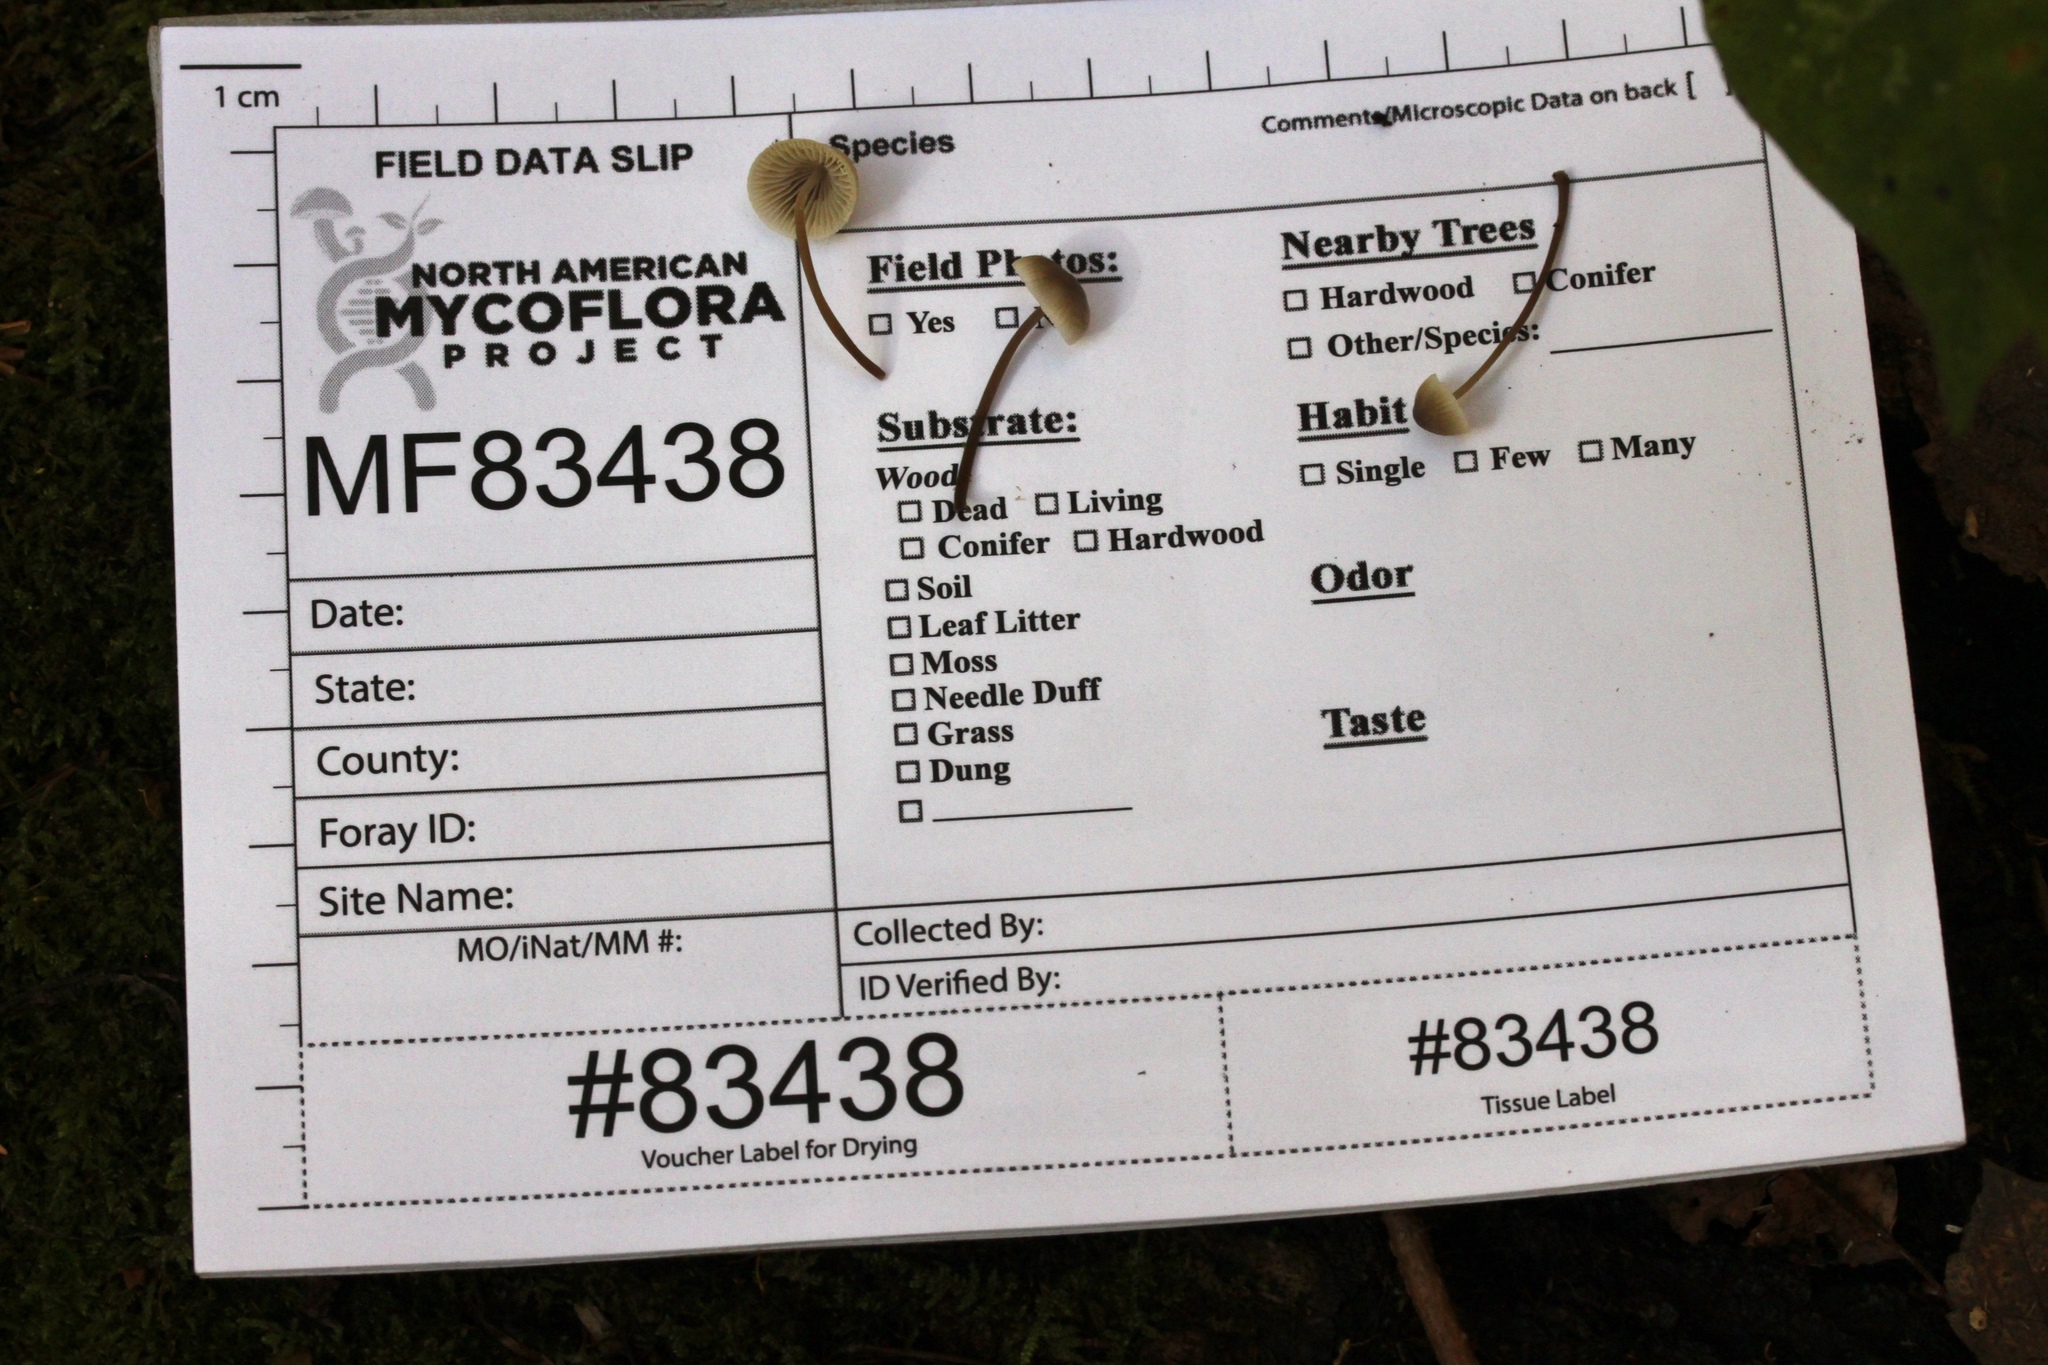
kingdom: Fungi
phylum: Basidiomycota
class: Agaricomycetes
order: Agaricales
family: Mycenaceae
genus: Mycena
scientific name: Mycena filopes
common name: Iodine bonnet
